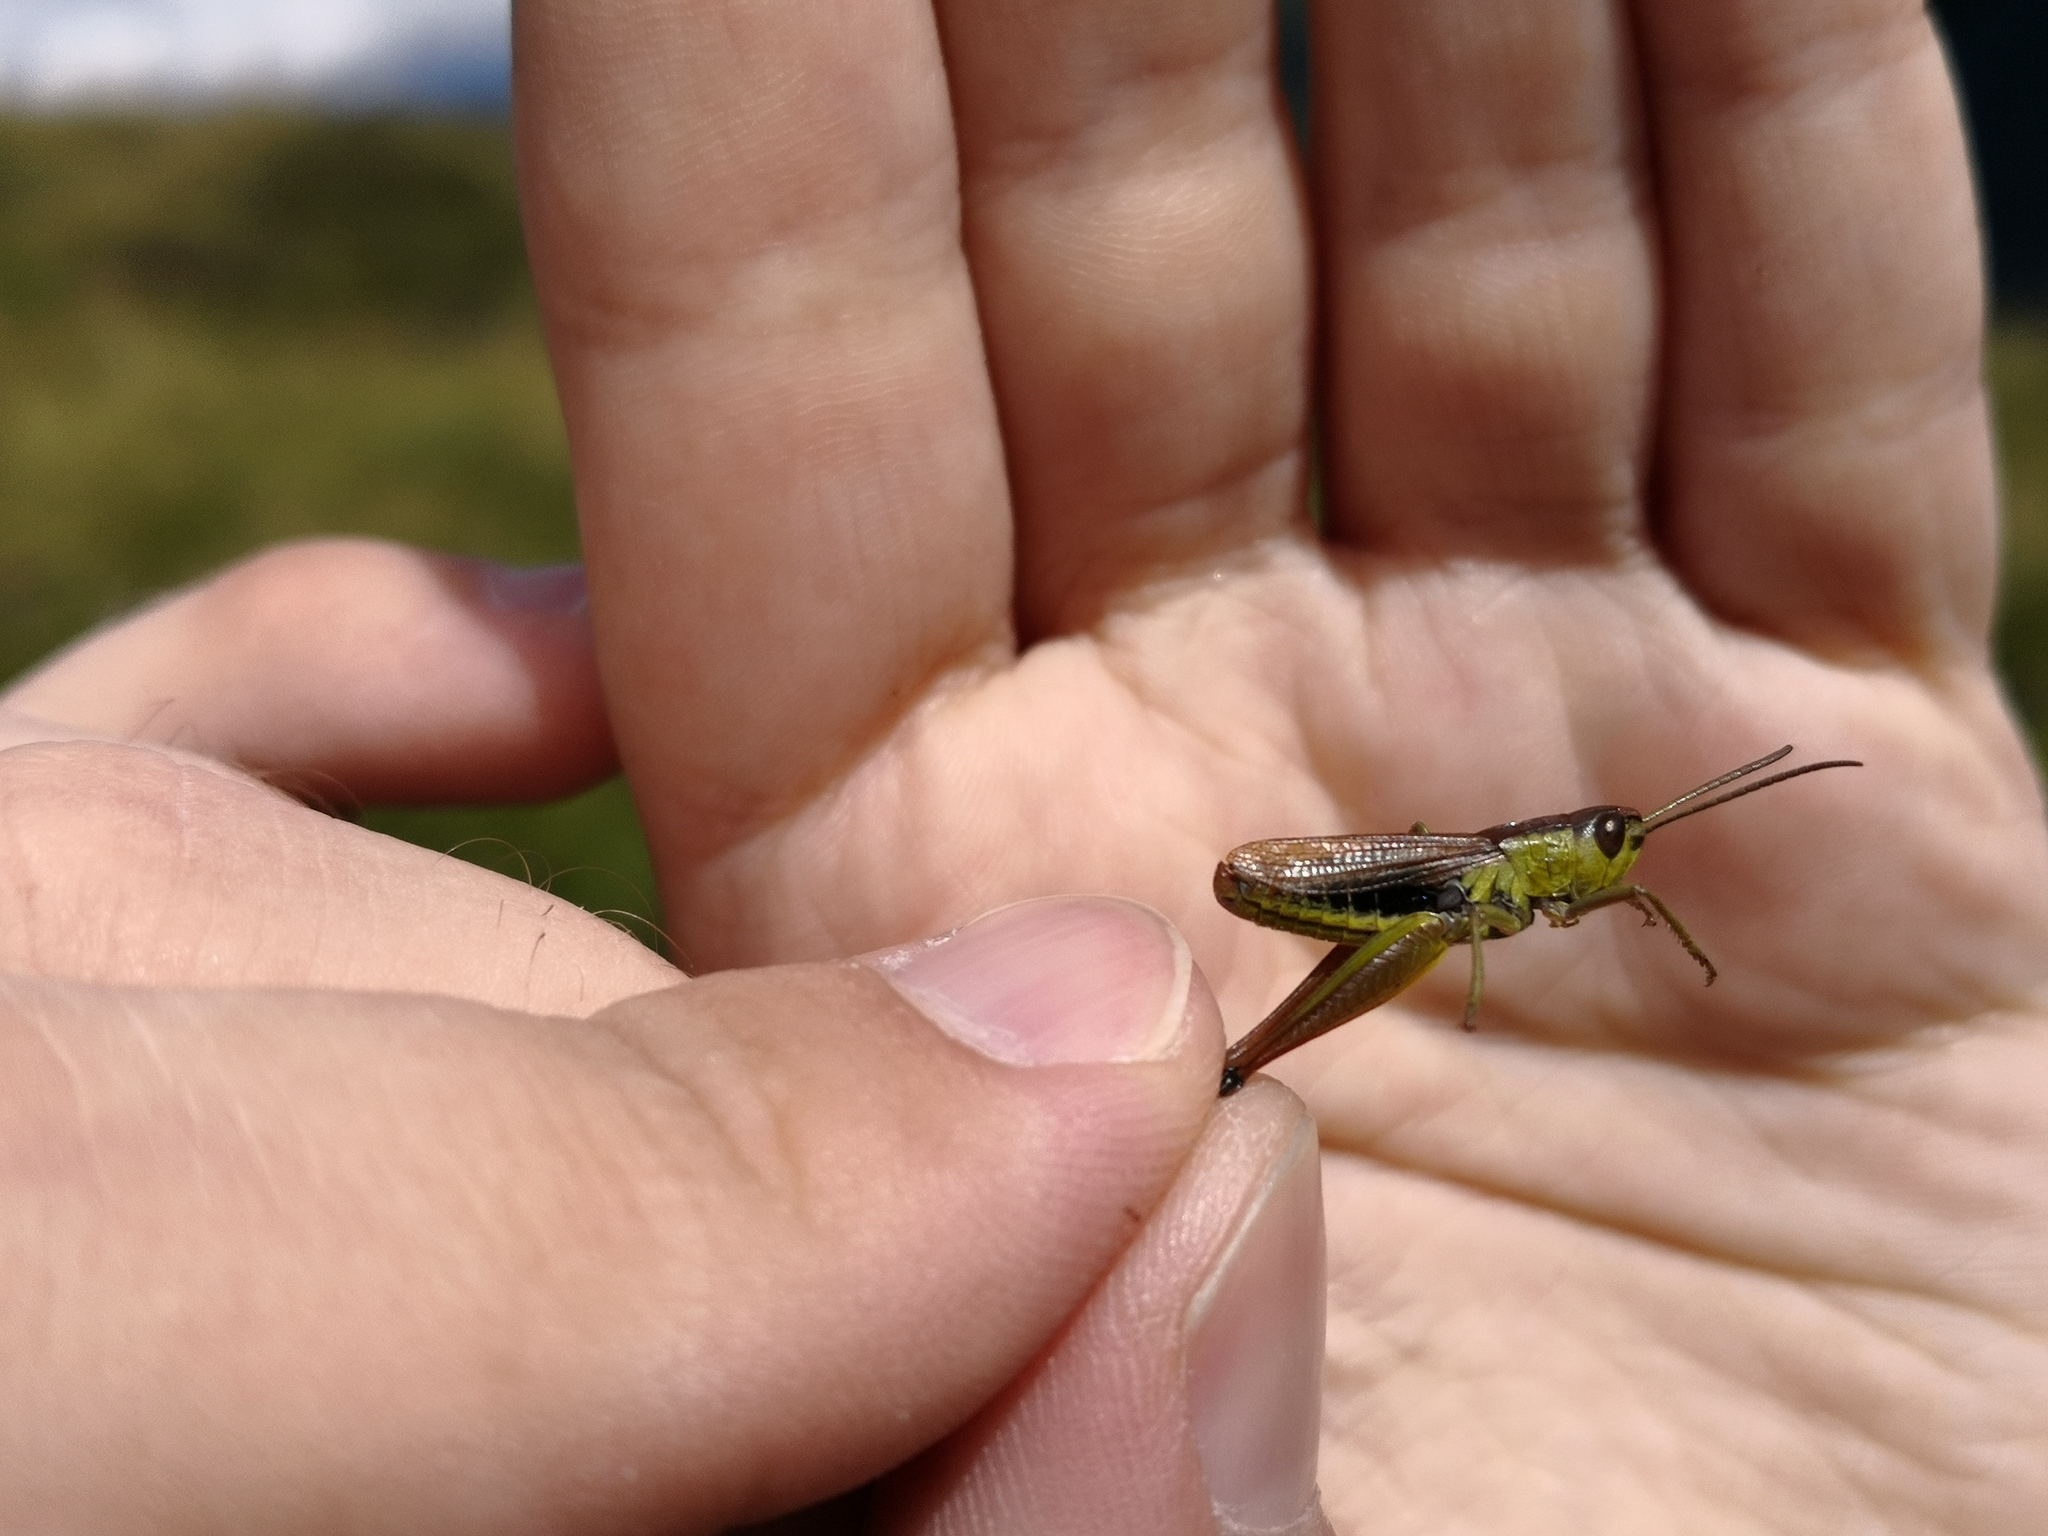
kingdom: Animalia
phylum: Arthropoda
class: Insecta
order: Orthoptera
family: Acrididae
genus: Pseudochorthippus
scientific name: Pseudochorthippus parallelus
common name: Meadow grasshopper
